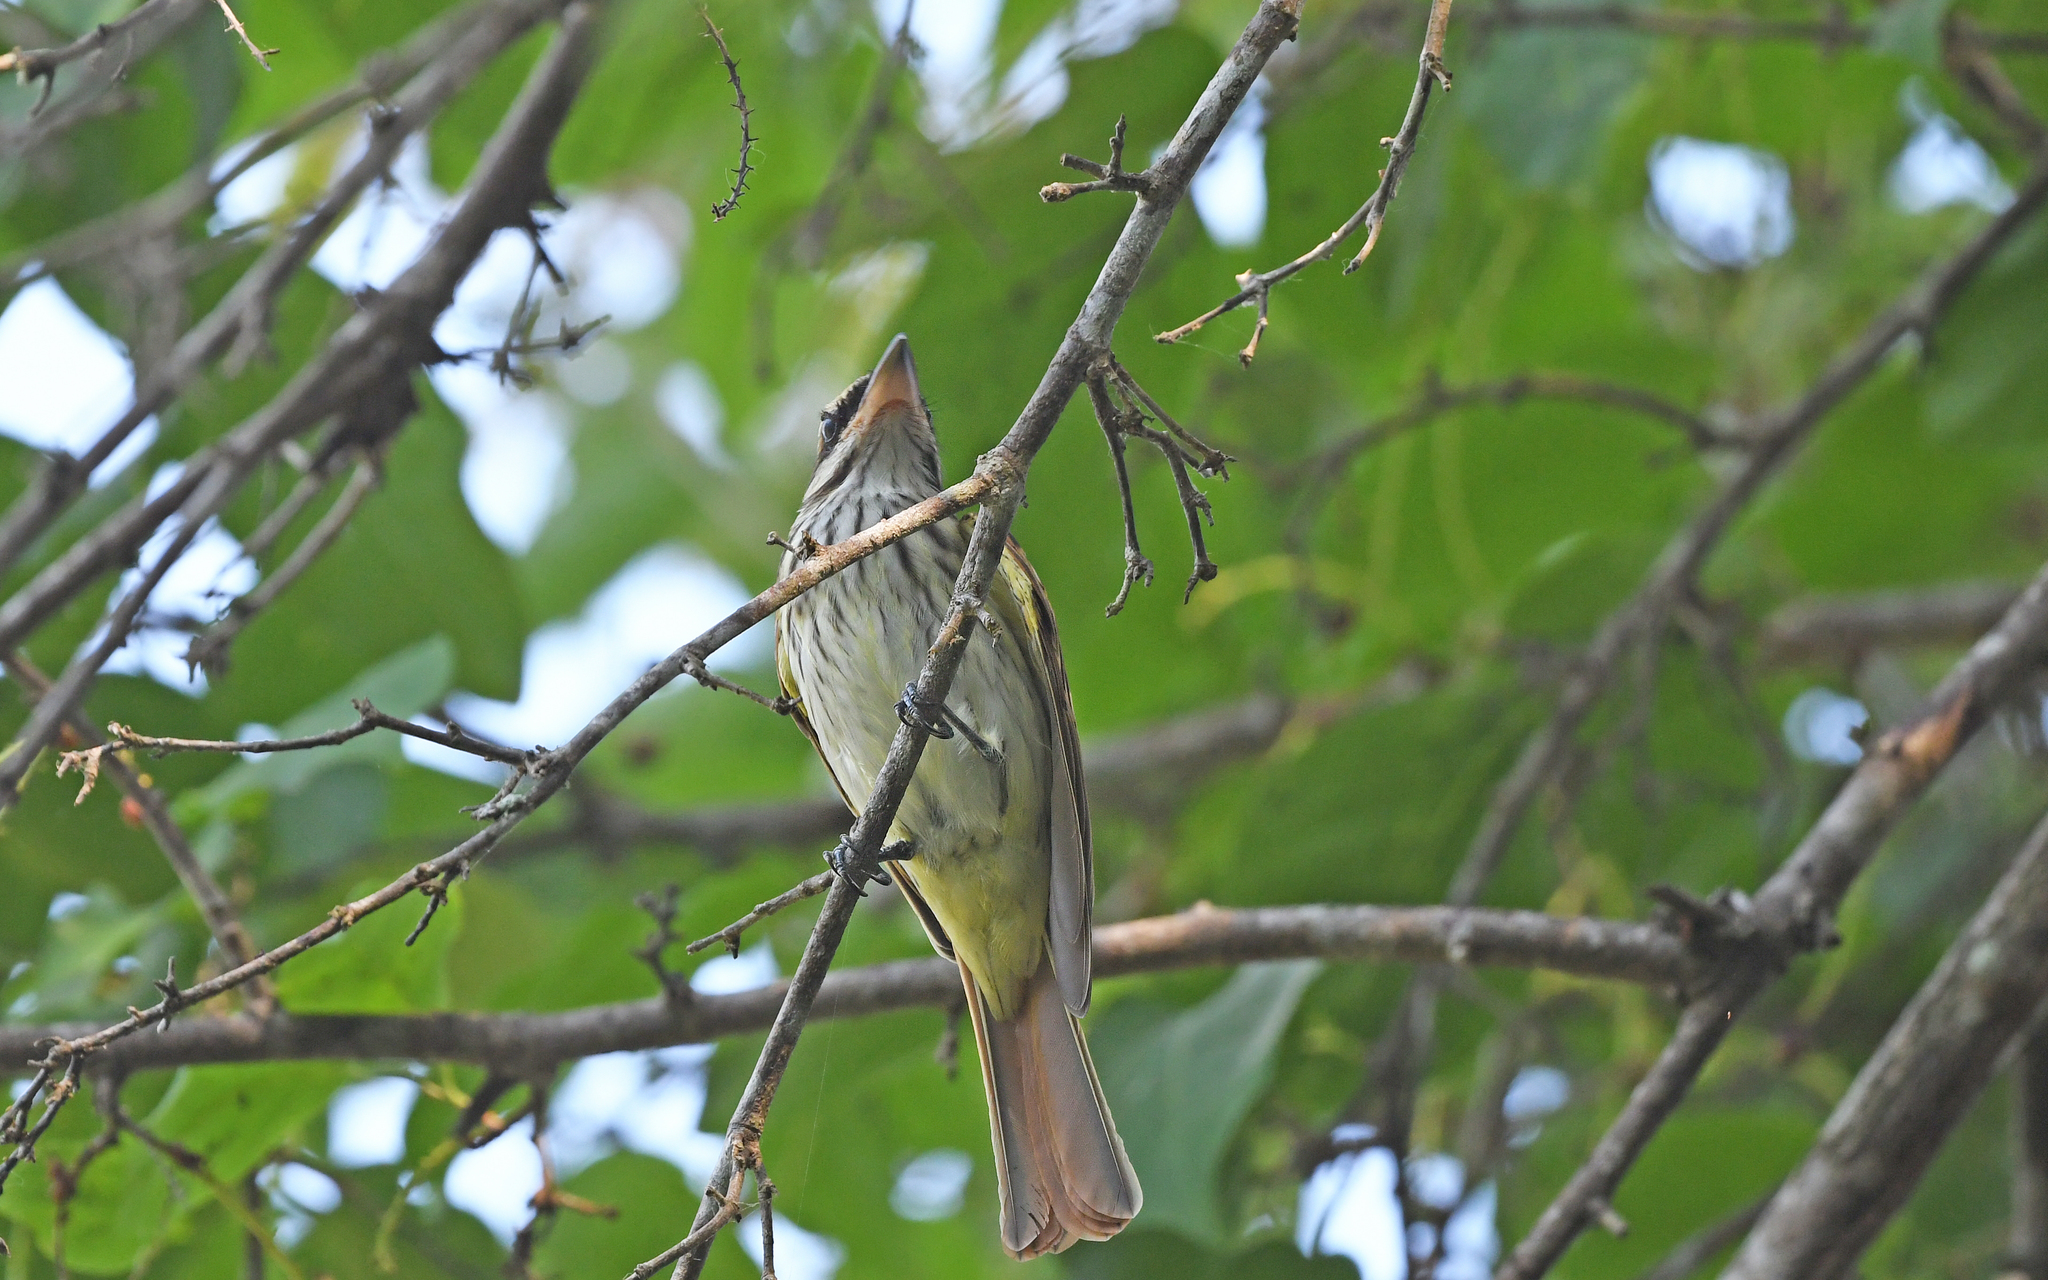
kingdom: Animalia
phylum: Chordata
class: Aves
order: Passeriformes
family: Tyrannidae
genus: Myiodynastes
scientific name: Myiodynastes maculatus
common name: Streaked flycatcher
